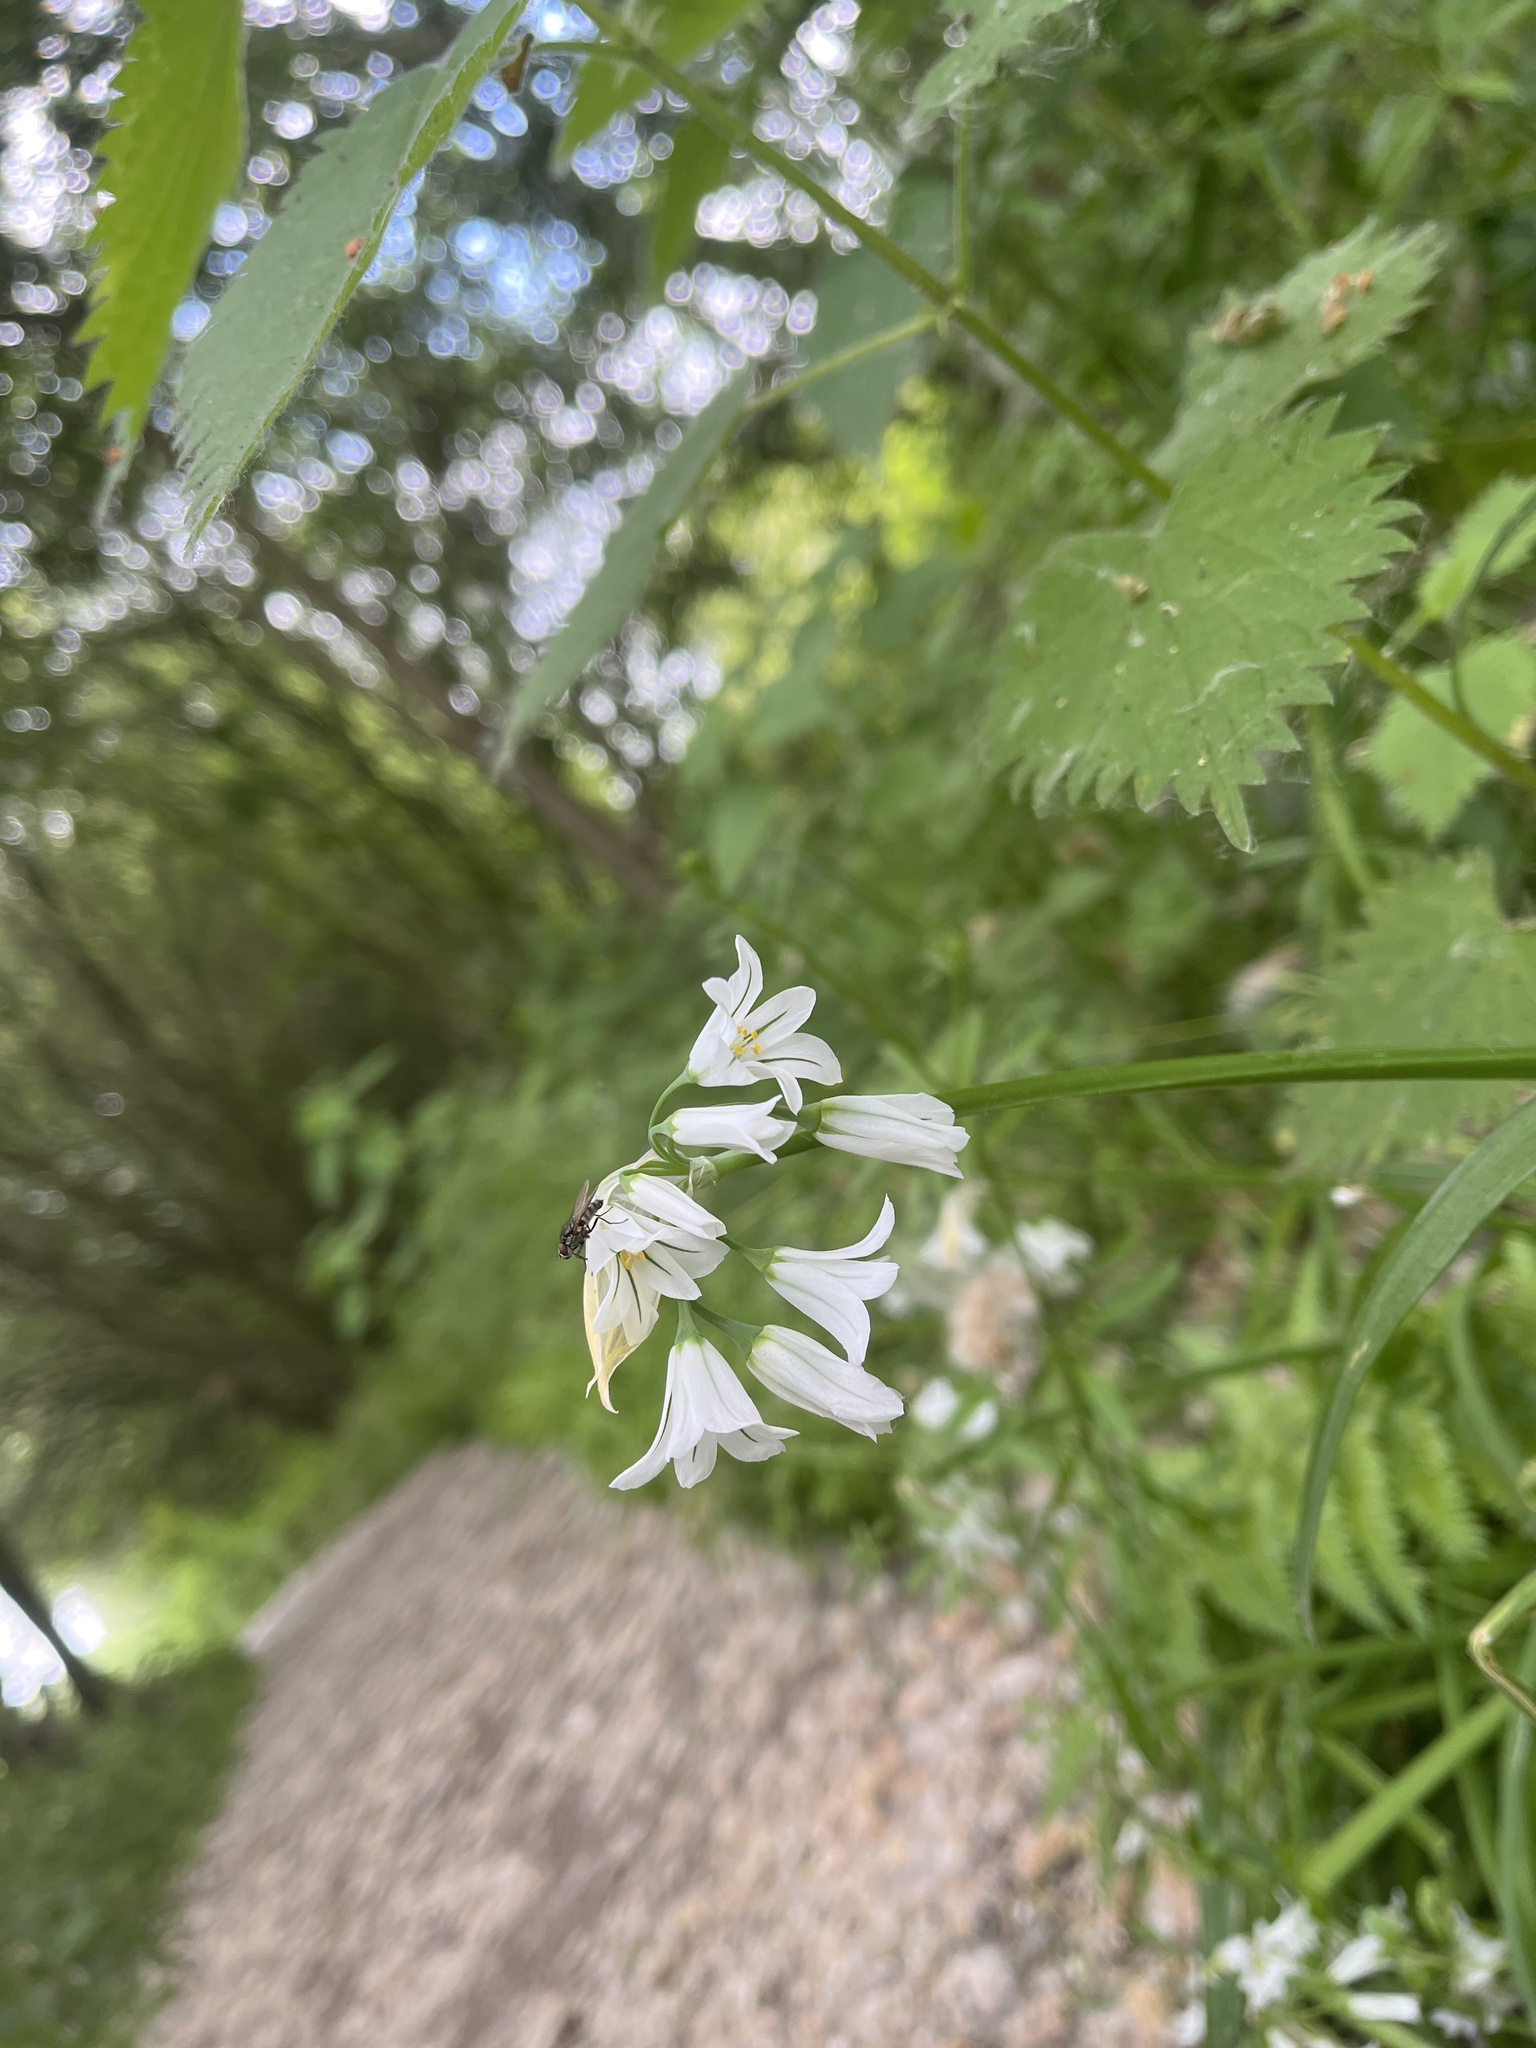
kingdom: Plantae
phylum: Tracheophyta
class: Liliopsida
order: Asparagales
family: Amaryllidaceae
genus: Allium
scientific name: Allium triquetrum
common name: Three-cornered garlic
